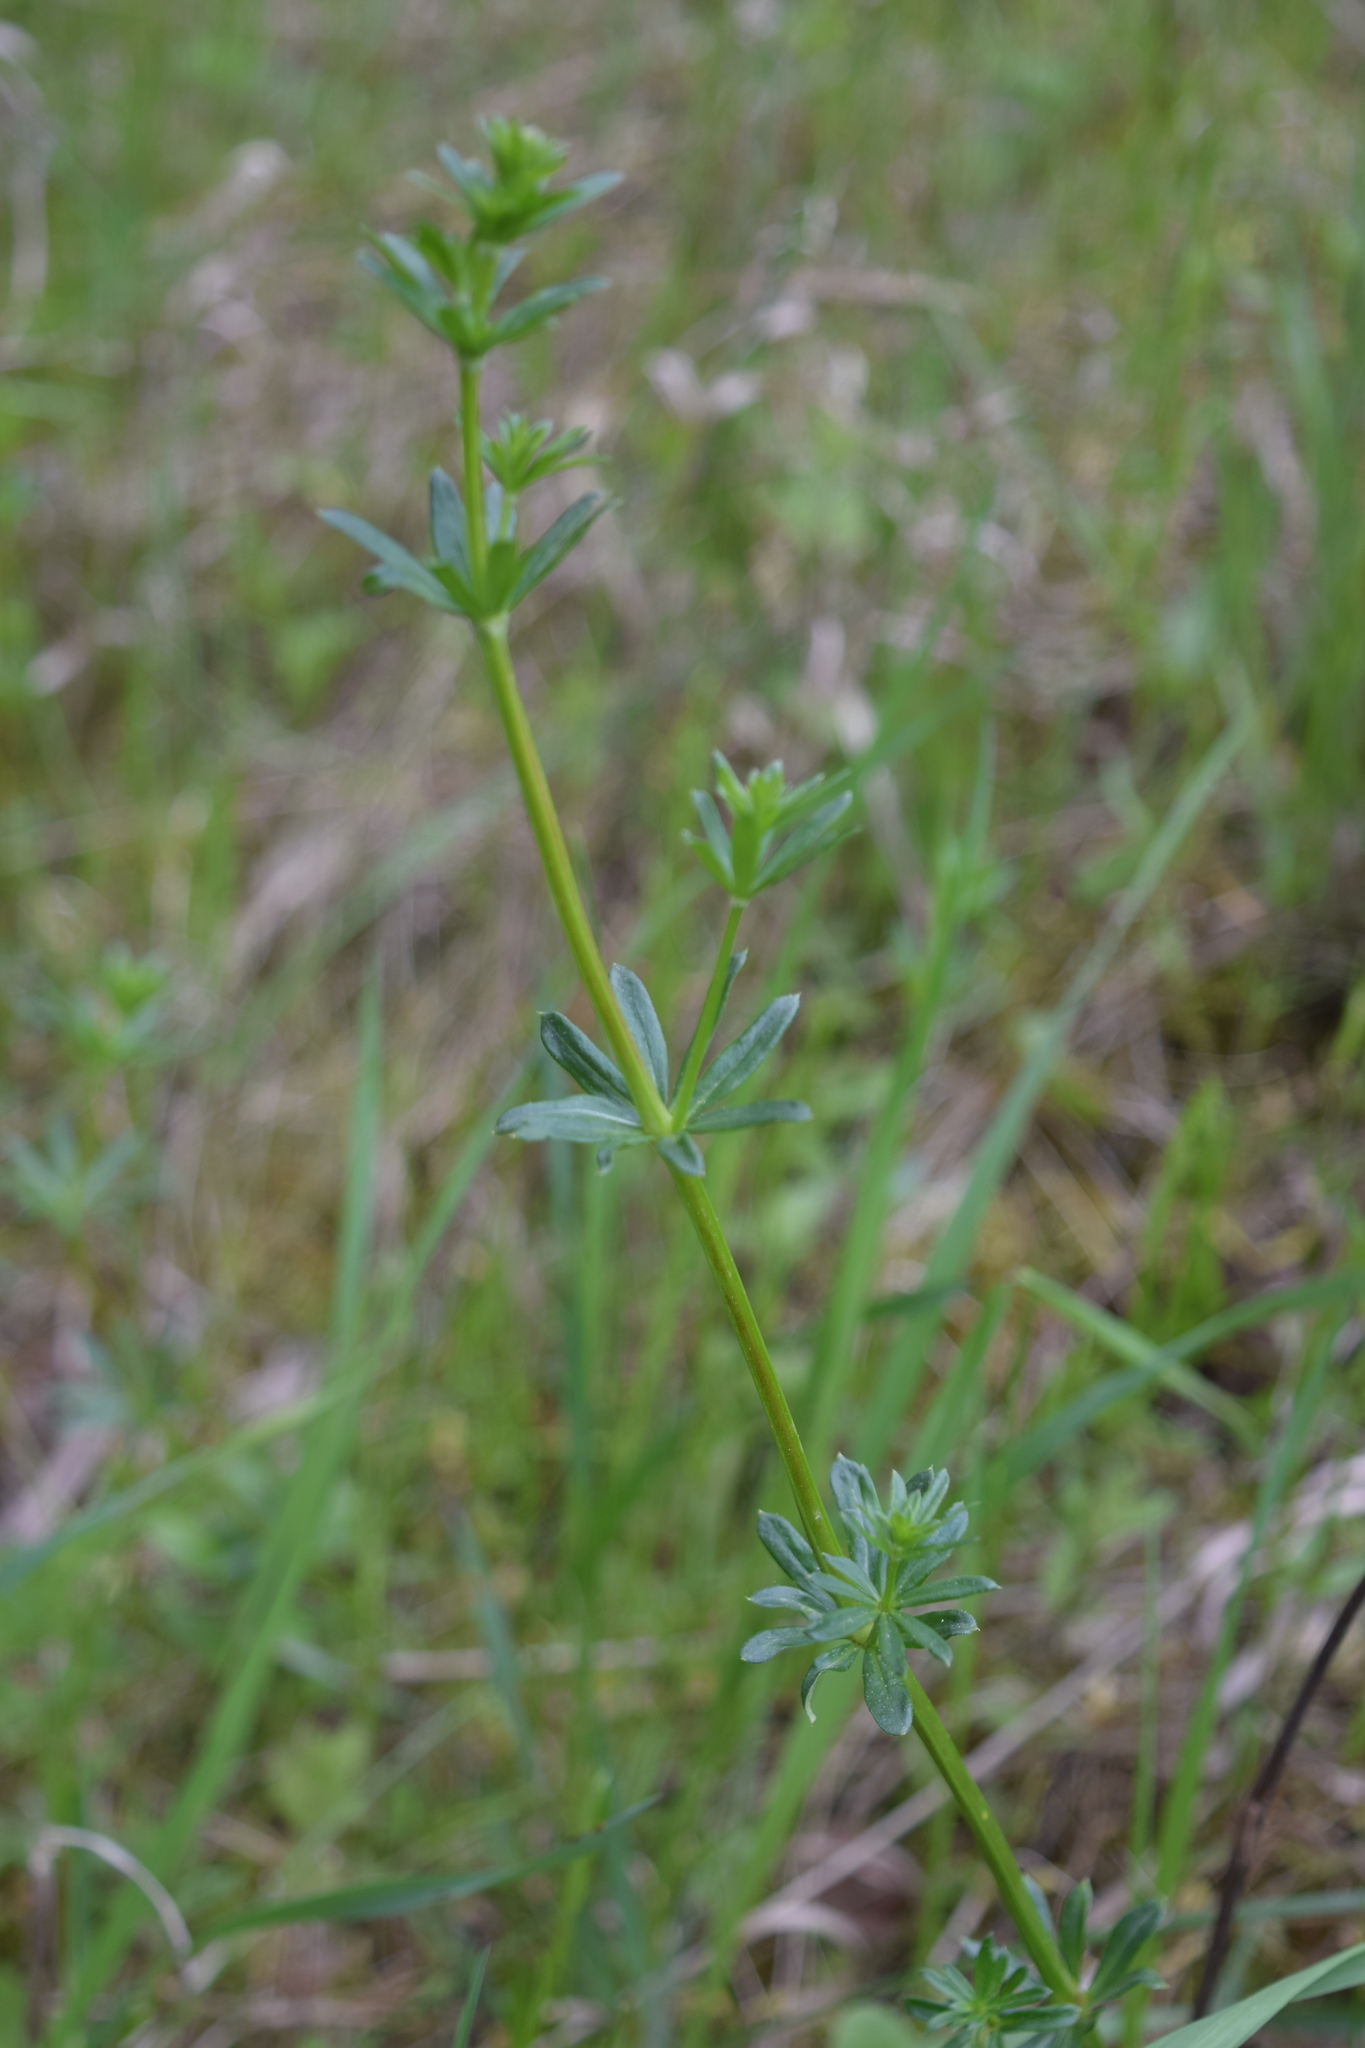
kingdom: Plantae
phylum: Tracheophyta
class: Magnoliopsida
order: Gentianales
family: Rubiaceae
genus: Galium
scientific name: Galium mollugo
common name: Hedge bedstraw
